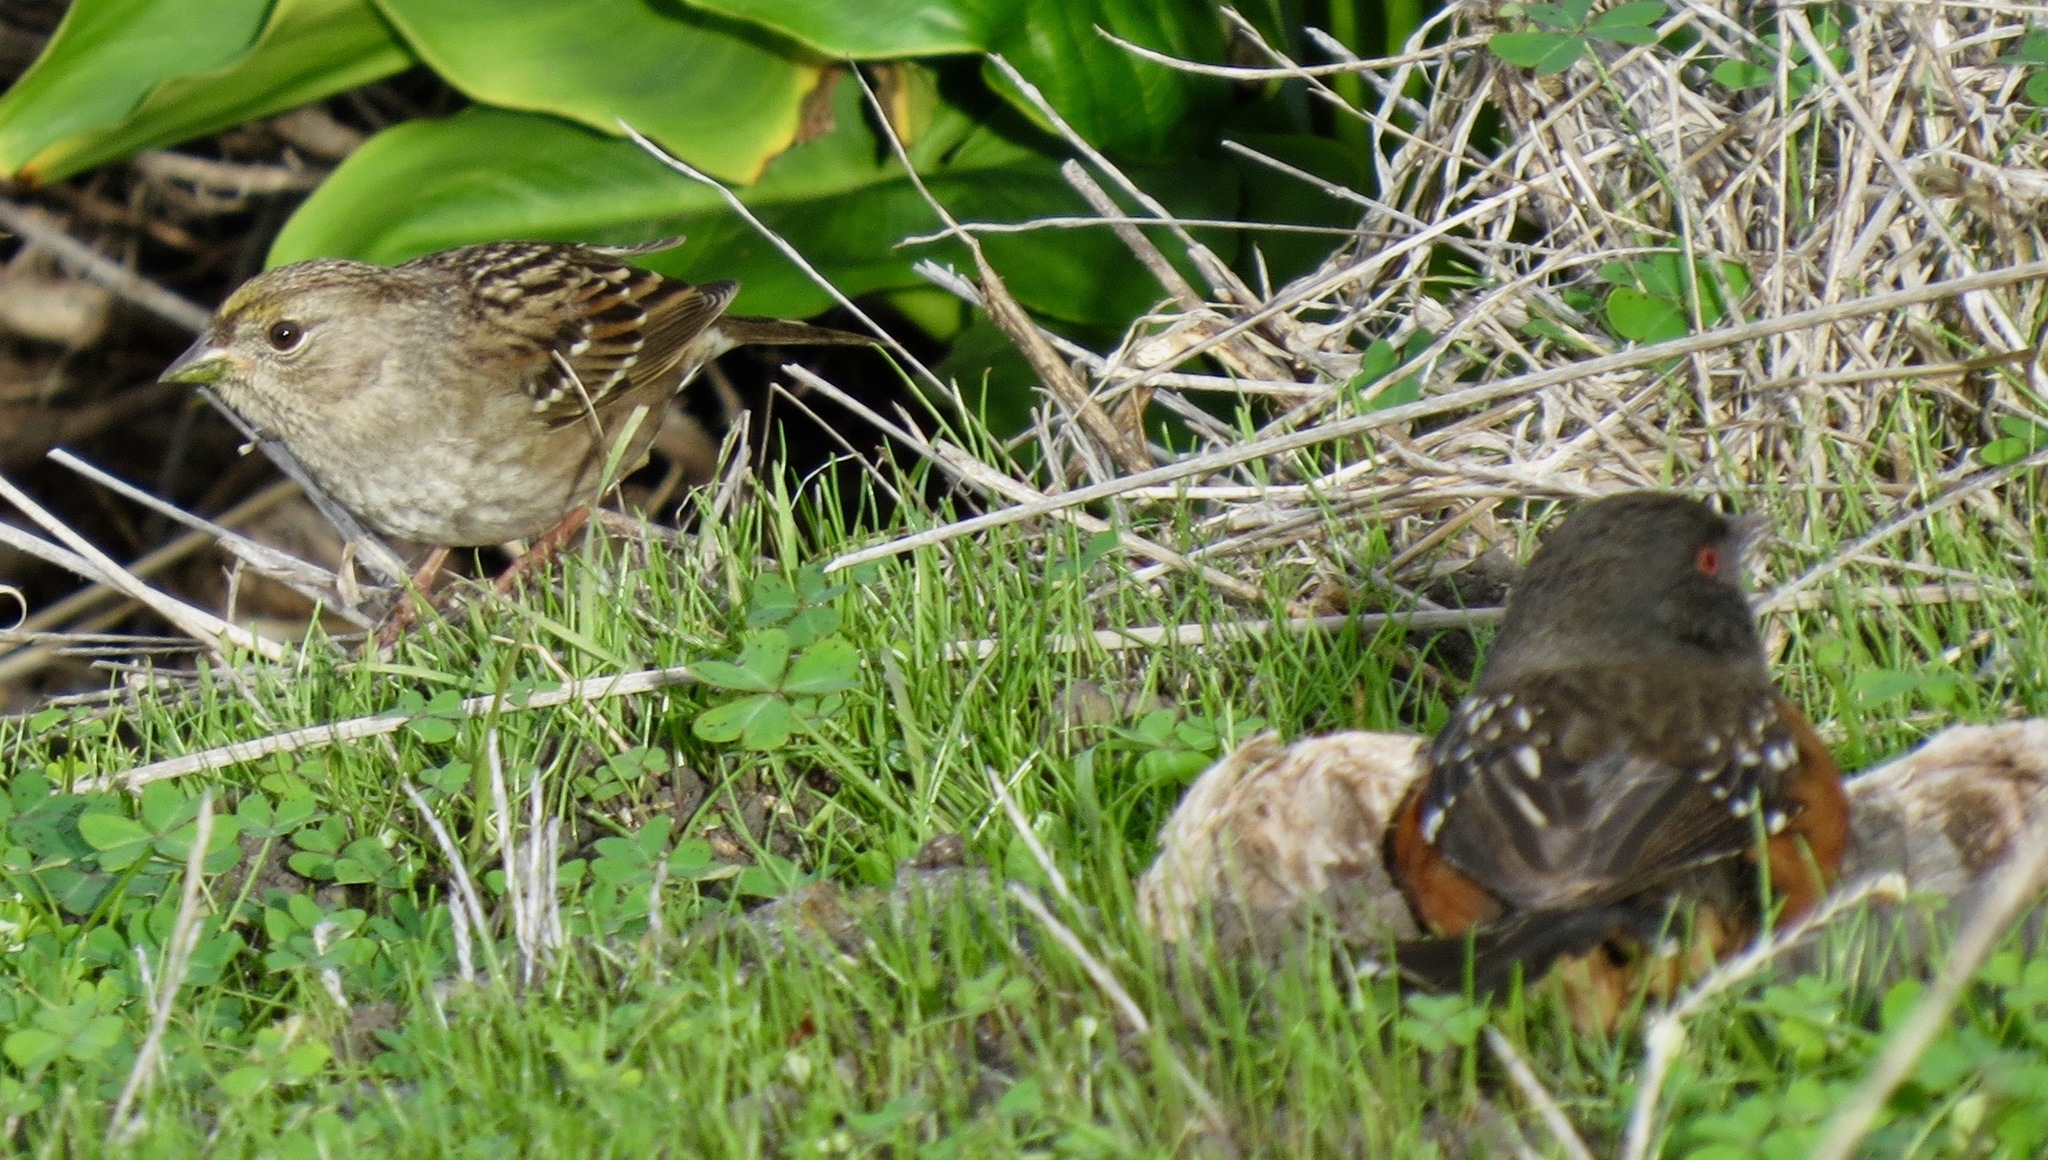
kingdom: Animalia
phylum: Chordata
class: Aves
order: Passeriformes
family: Passerellidae
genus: Zonotrichia
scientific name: Zonotrichia atricapilla
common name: Golden-crowned sparrow
